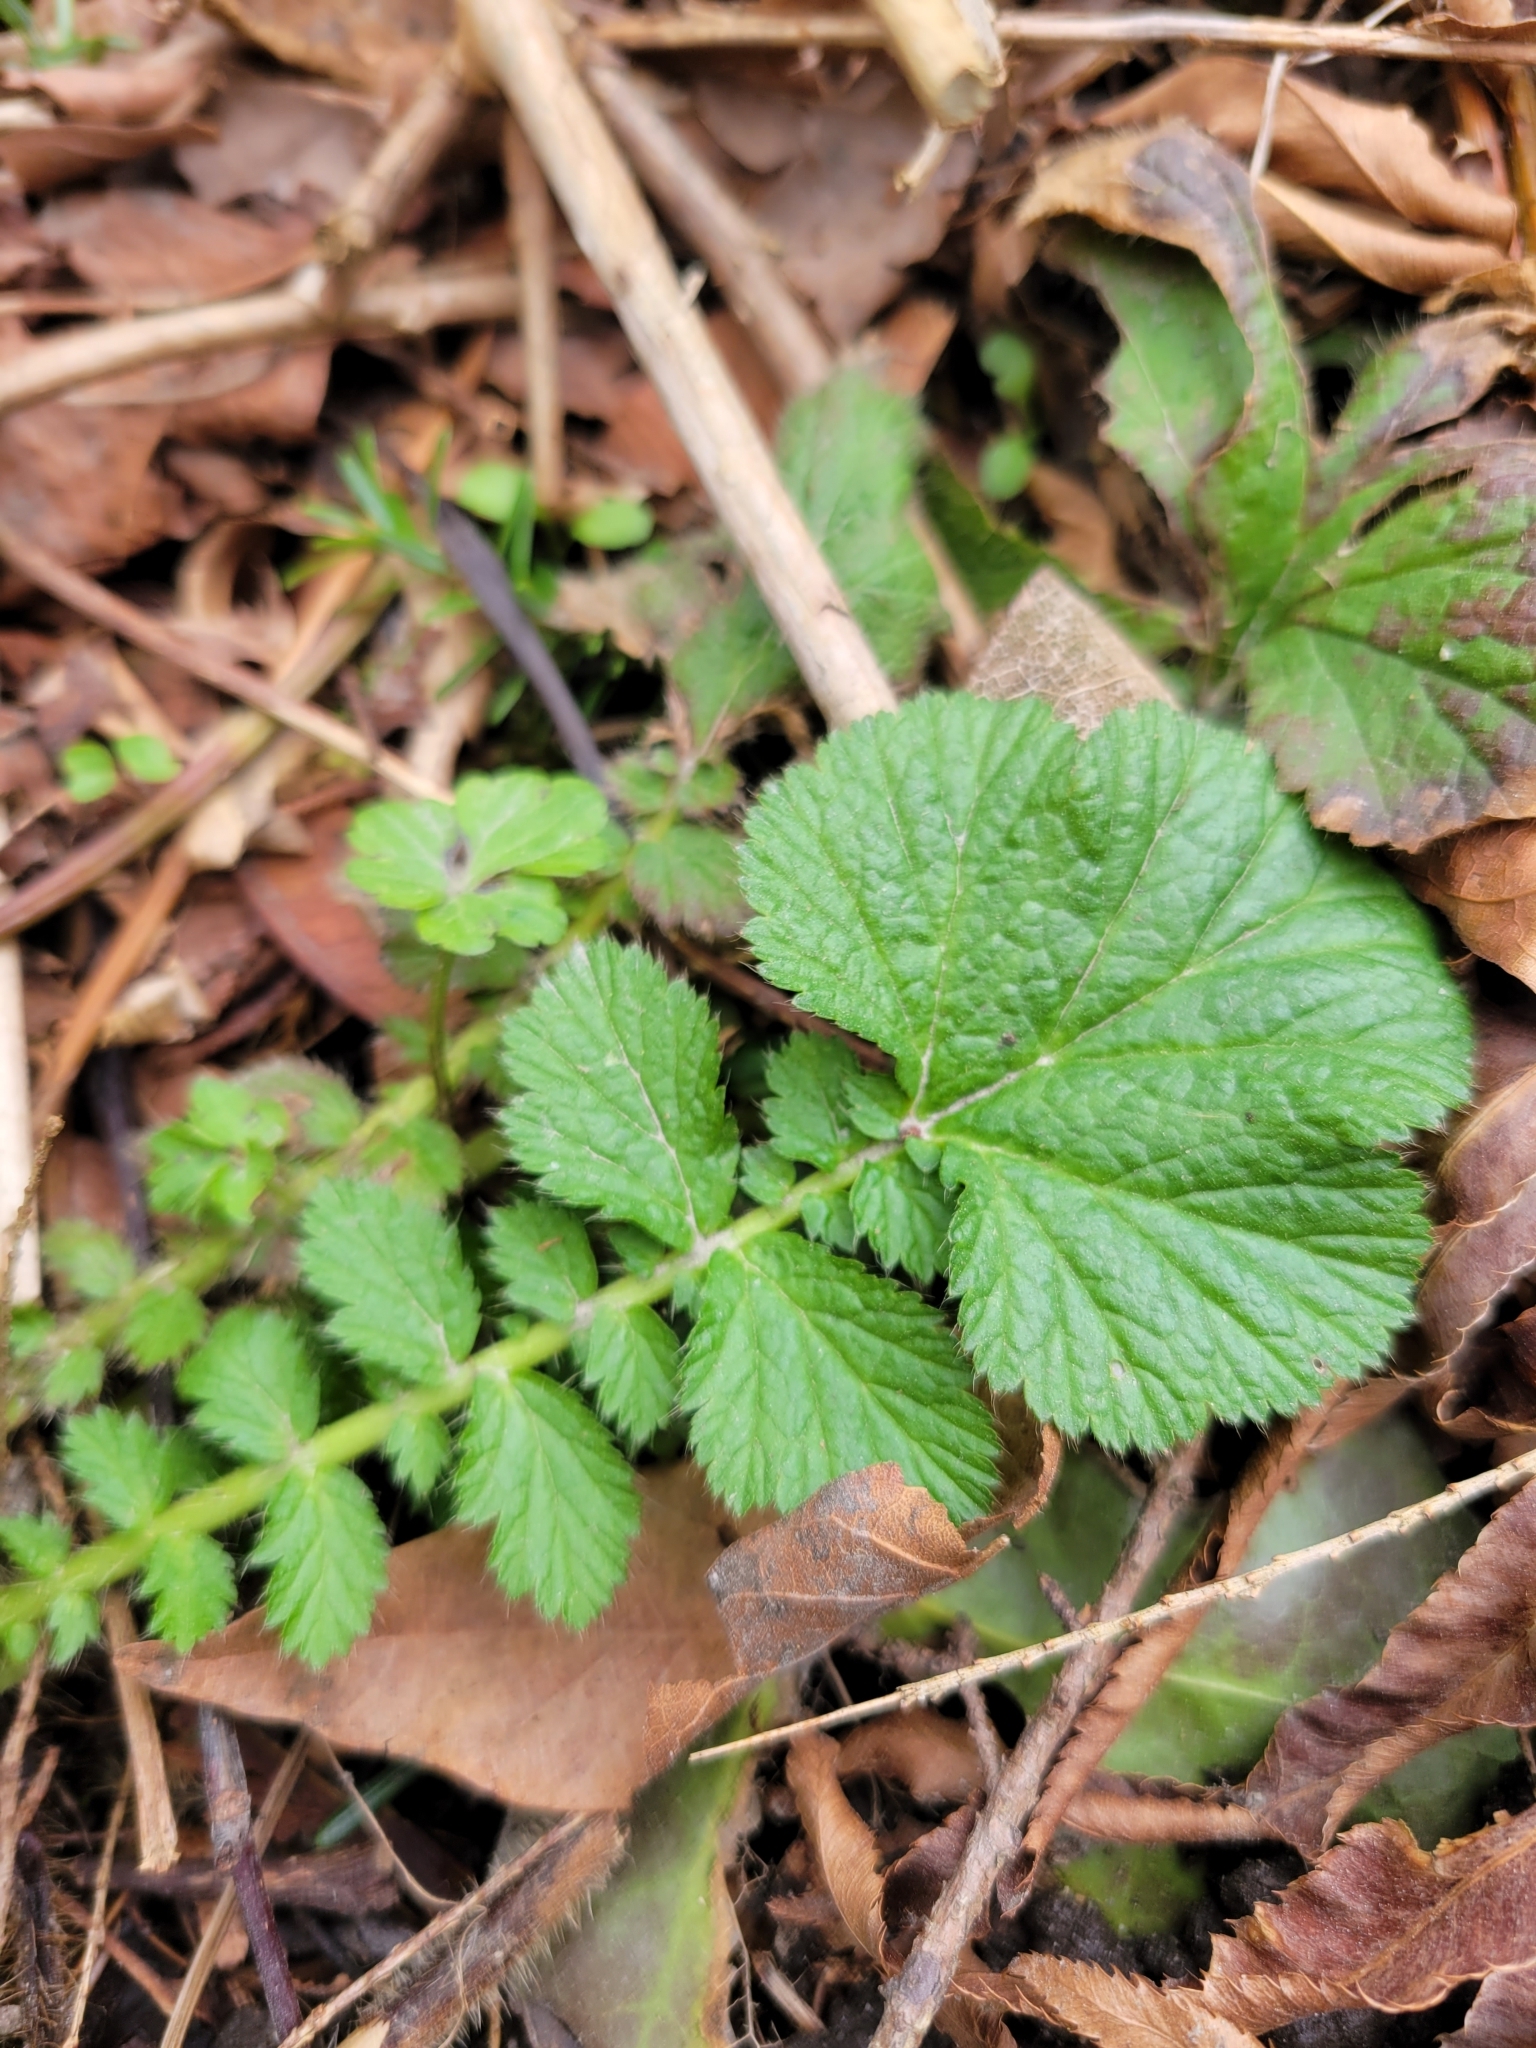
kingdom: Plantae
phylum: Tracheophyta
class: Magnoliopsida
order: Rosales
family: Rosaceae
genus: Geum
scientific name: Geum macrophyllum
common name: Large-leaved avens
